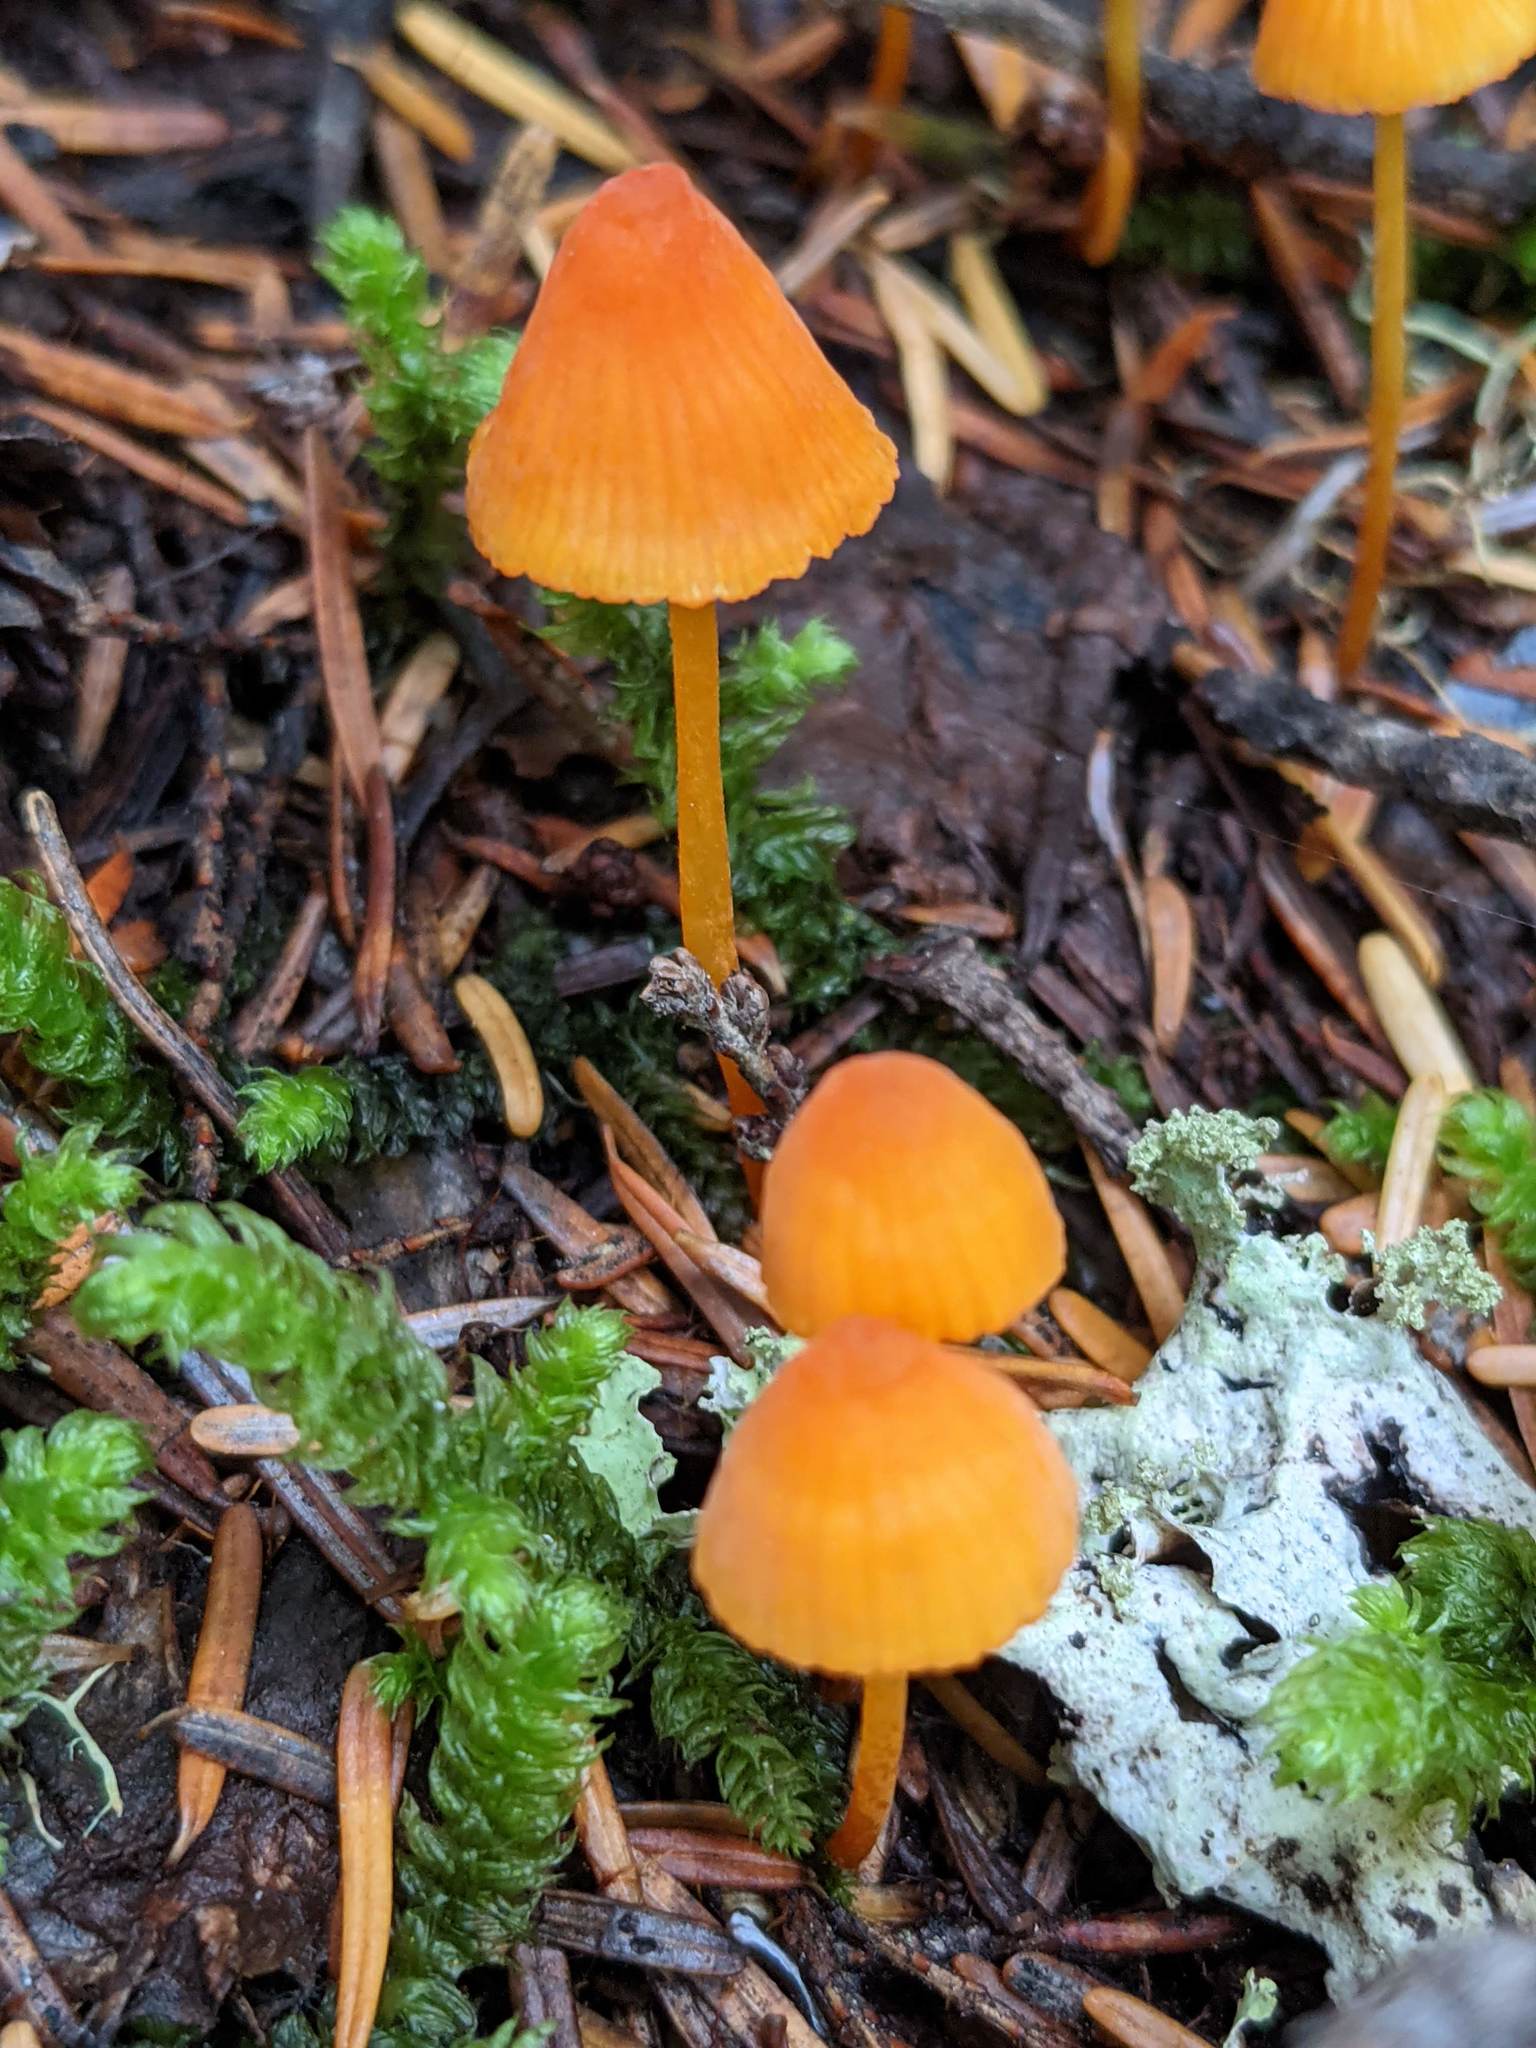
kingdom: Fungi
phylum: Basidiomycota
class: Agaricomycetes
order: Agaricales
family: Mycenaceae
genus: Mycena
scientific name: Mycena strobilinoidea
